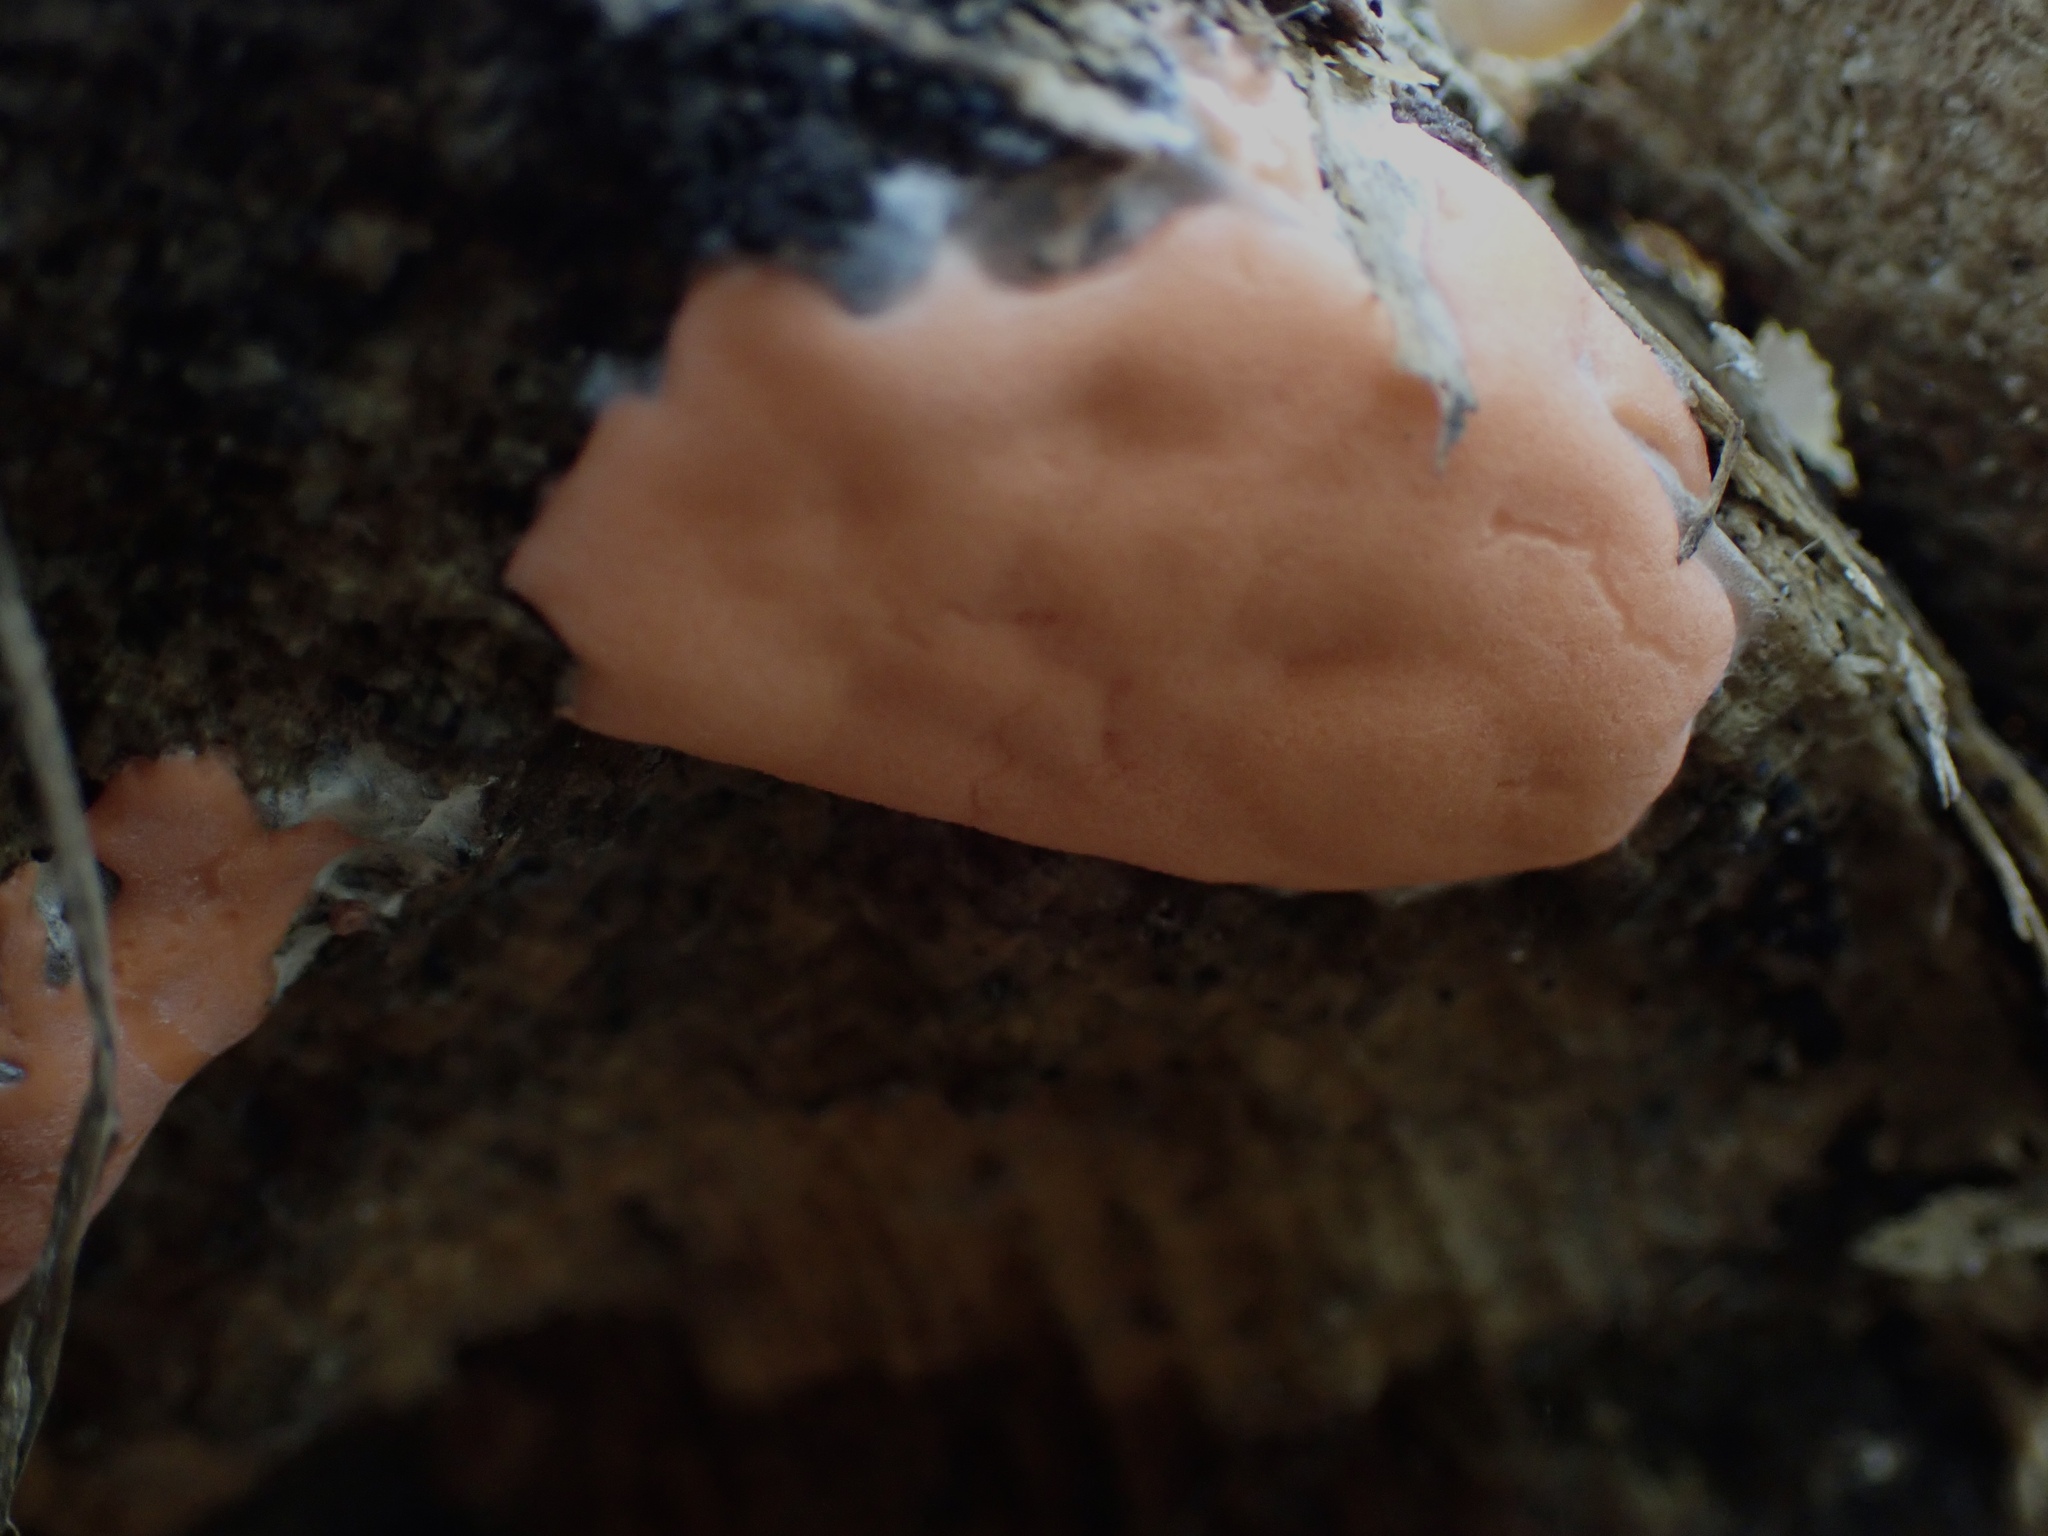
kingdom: Protozoa
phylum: Mycetozoa
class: Myxomycetes
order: Trichiales
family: Dictydiaethaliaceae
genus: Dictydiaethalium
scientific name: Dictydiaethalium plumbeum
